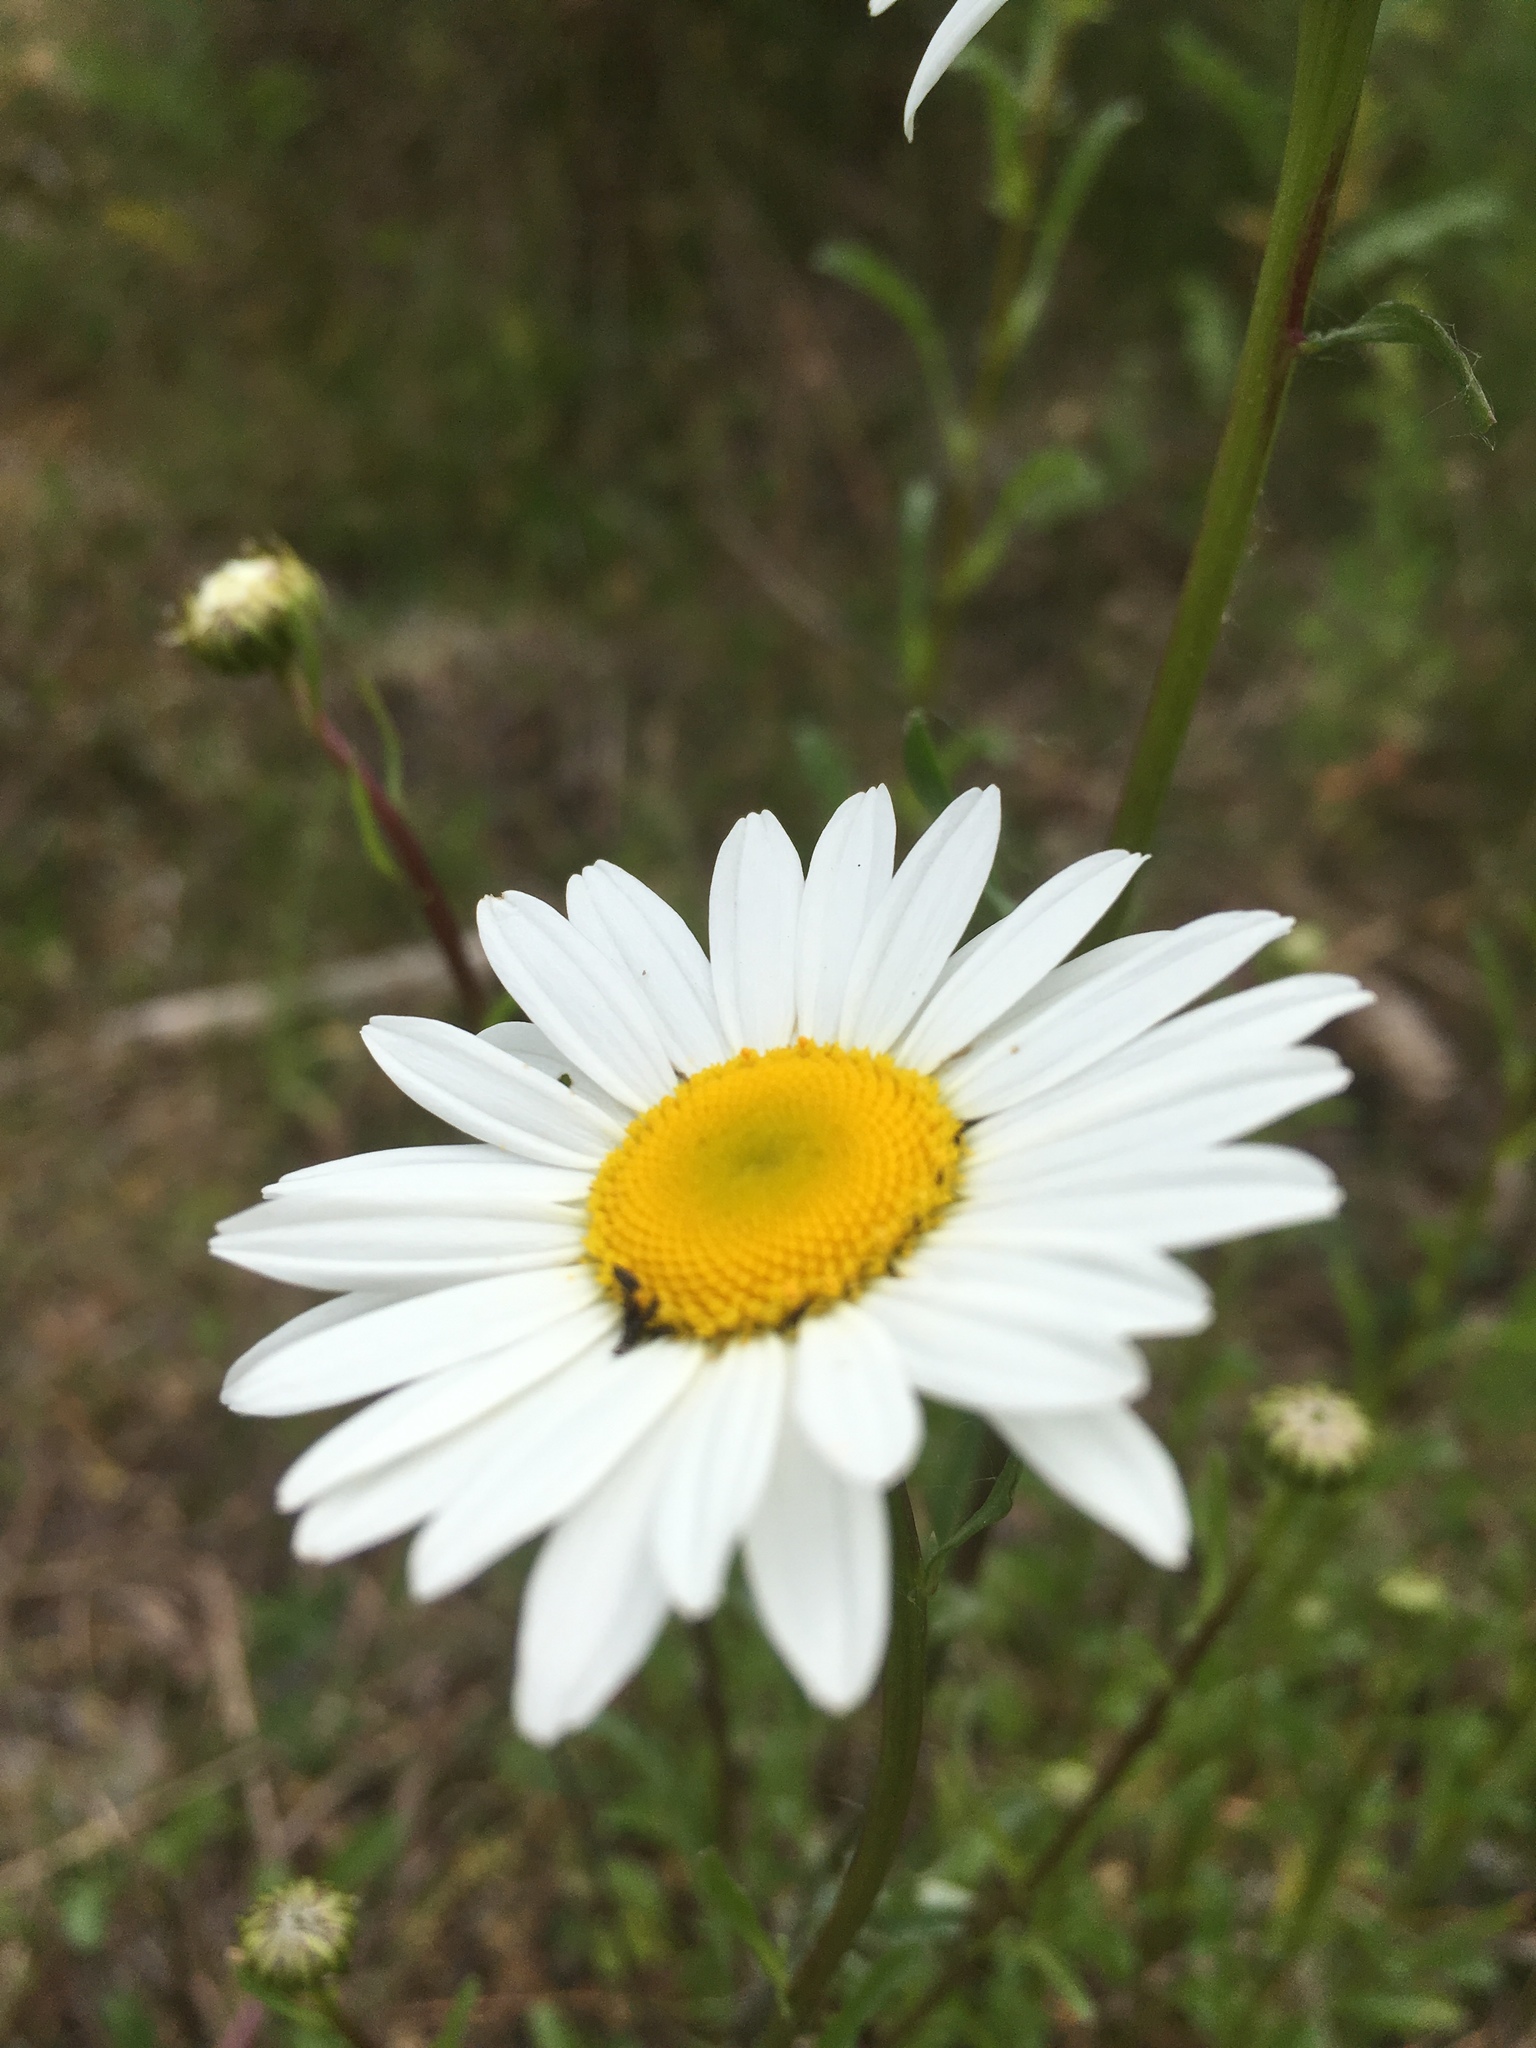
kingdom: Plantae
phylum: Tracheophyta
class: Magnoliopsida
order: Asterales
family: Asteraceae
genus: Leucanthemum
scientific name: Leucanthemum vulgare
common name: Oxeye daisy
